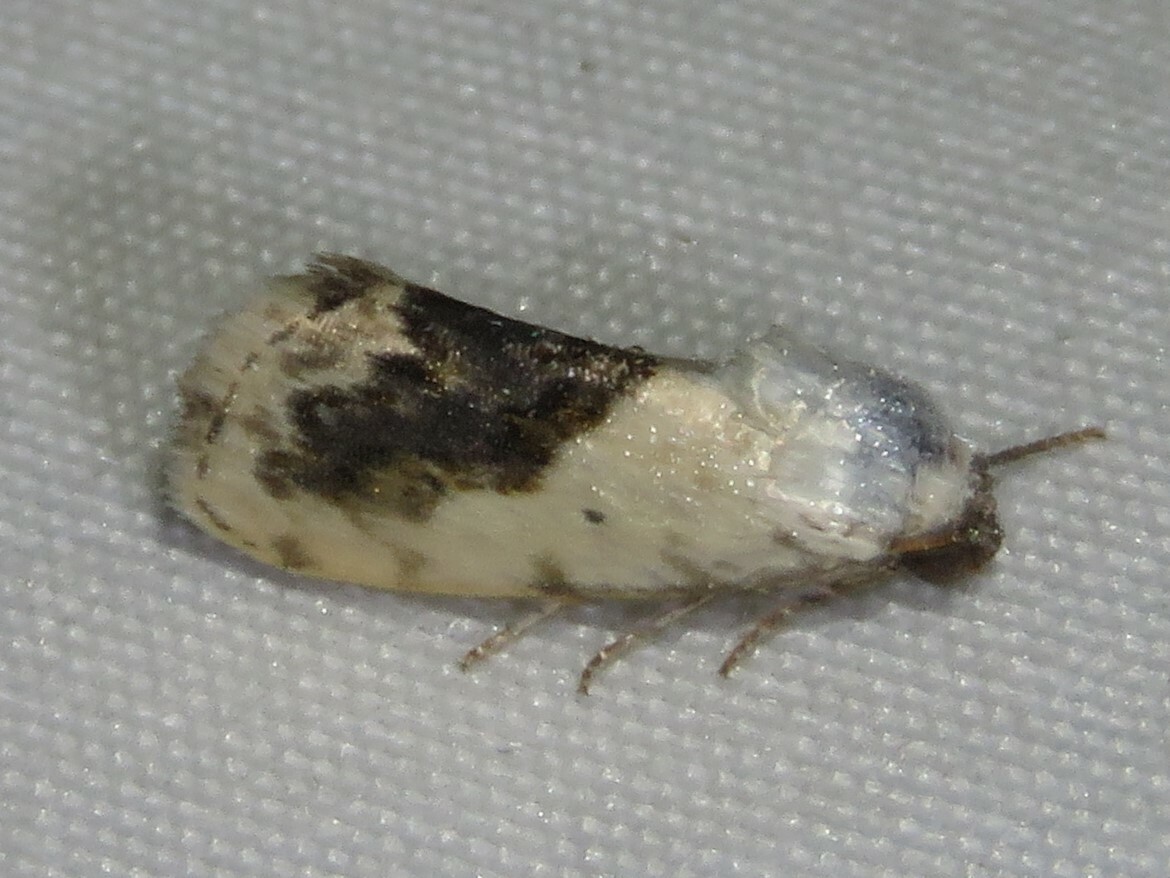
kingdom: Animalia
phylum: Arthropoda
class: Insecta
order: Lepidoptera
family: Noctuidae
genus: Acontia
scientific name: Acontia erastrioides
